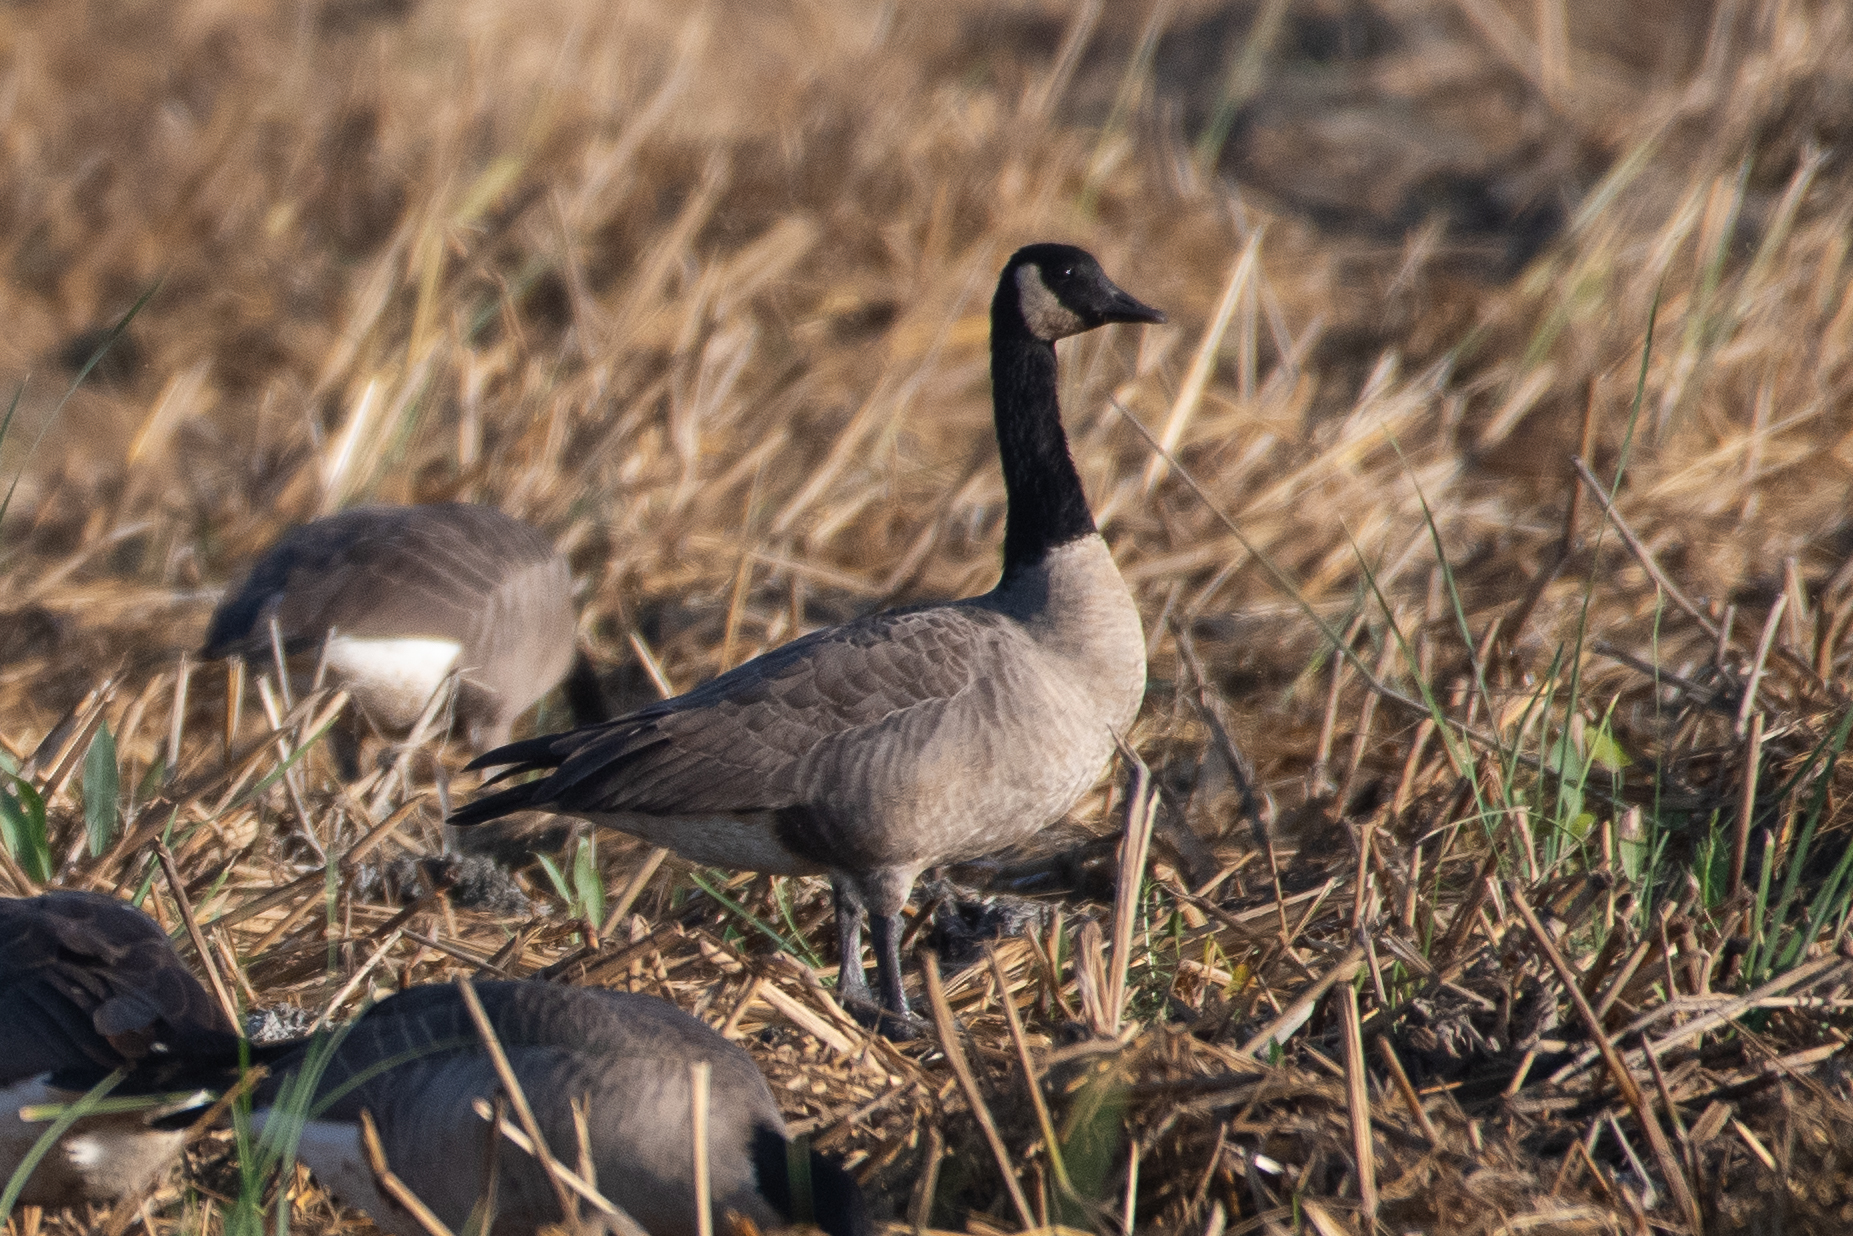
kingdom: Animalia
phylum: Chordata
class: Aves
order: Anseriformes
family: Anatidae
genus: Branta
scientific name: Branta canadensis
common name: Canada goose
